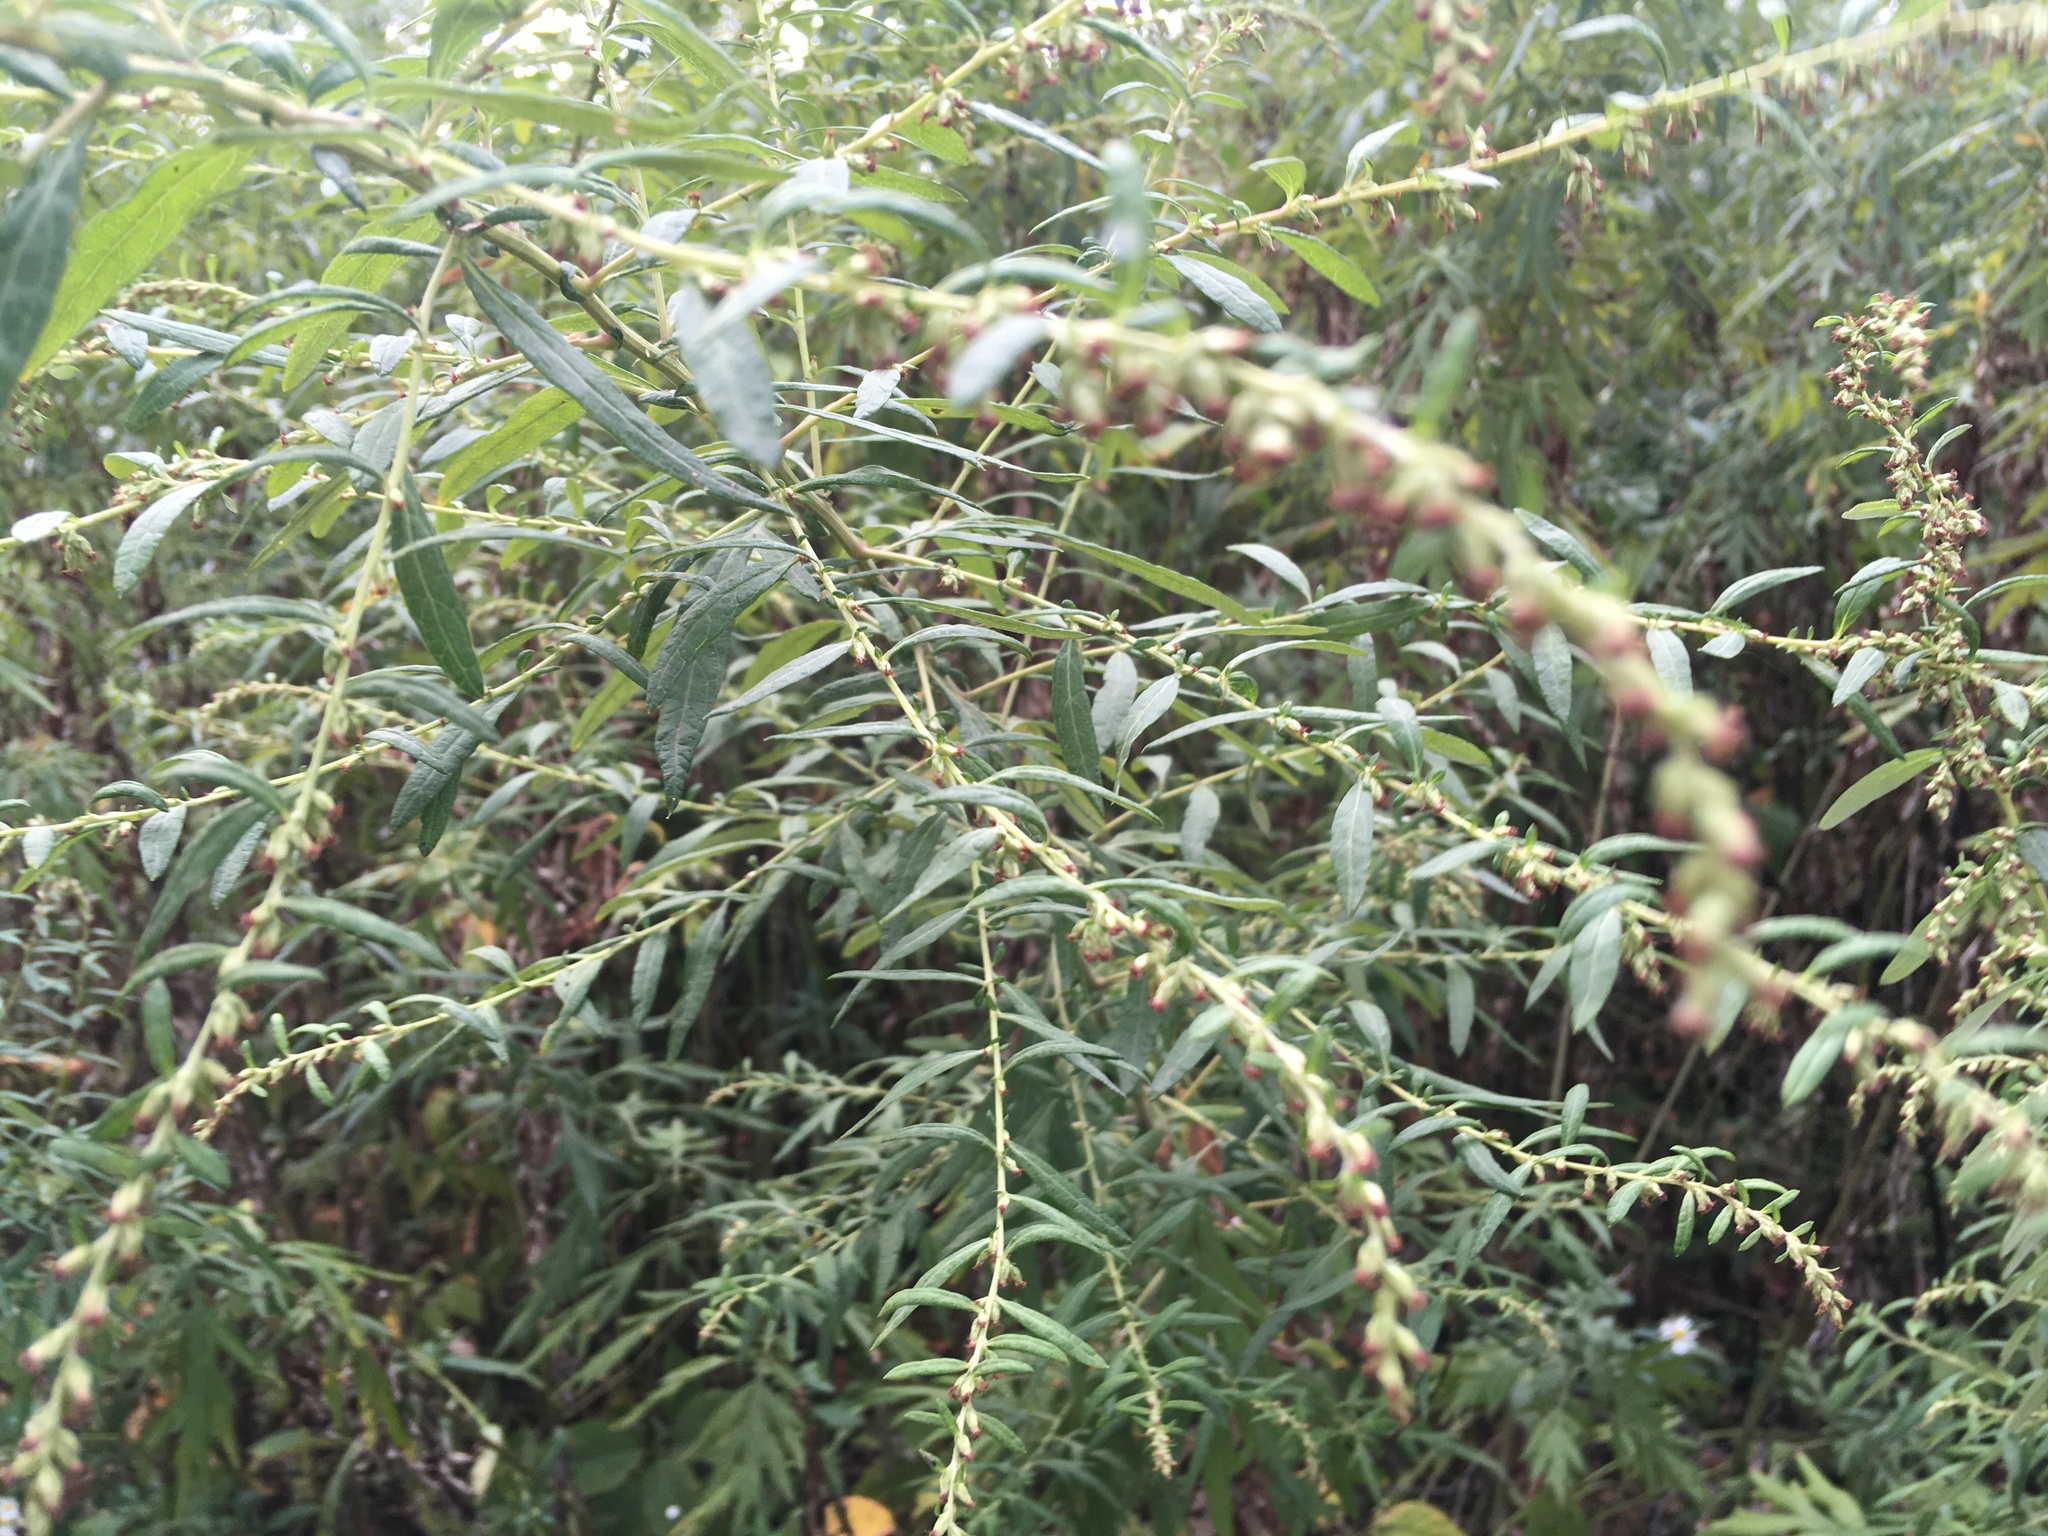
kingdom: Plantae
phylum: Tracheophyta
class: Magnoliopsida
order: Asterales
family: Asteraceae
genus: Artemisia
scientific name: Artemisia vulgaris
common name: Mugwort
